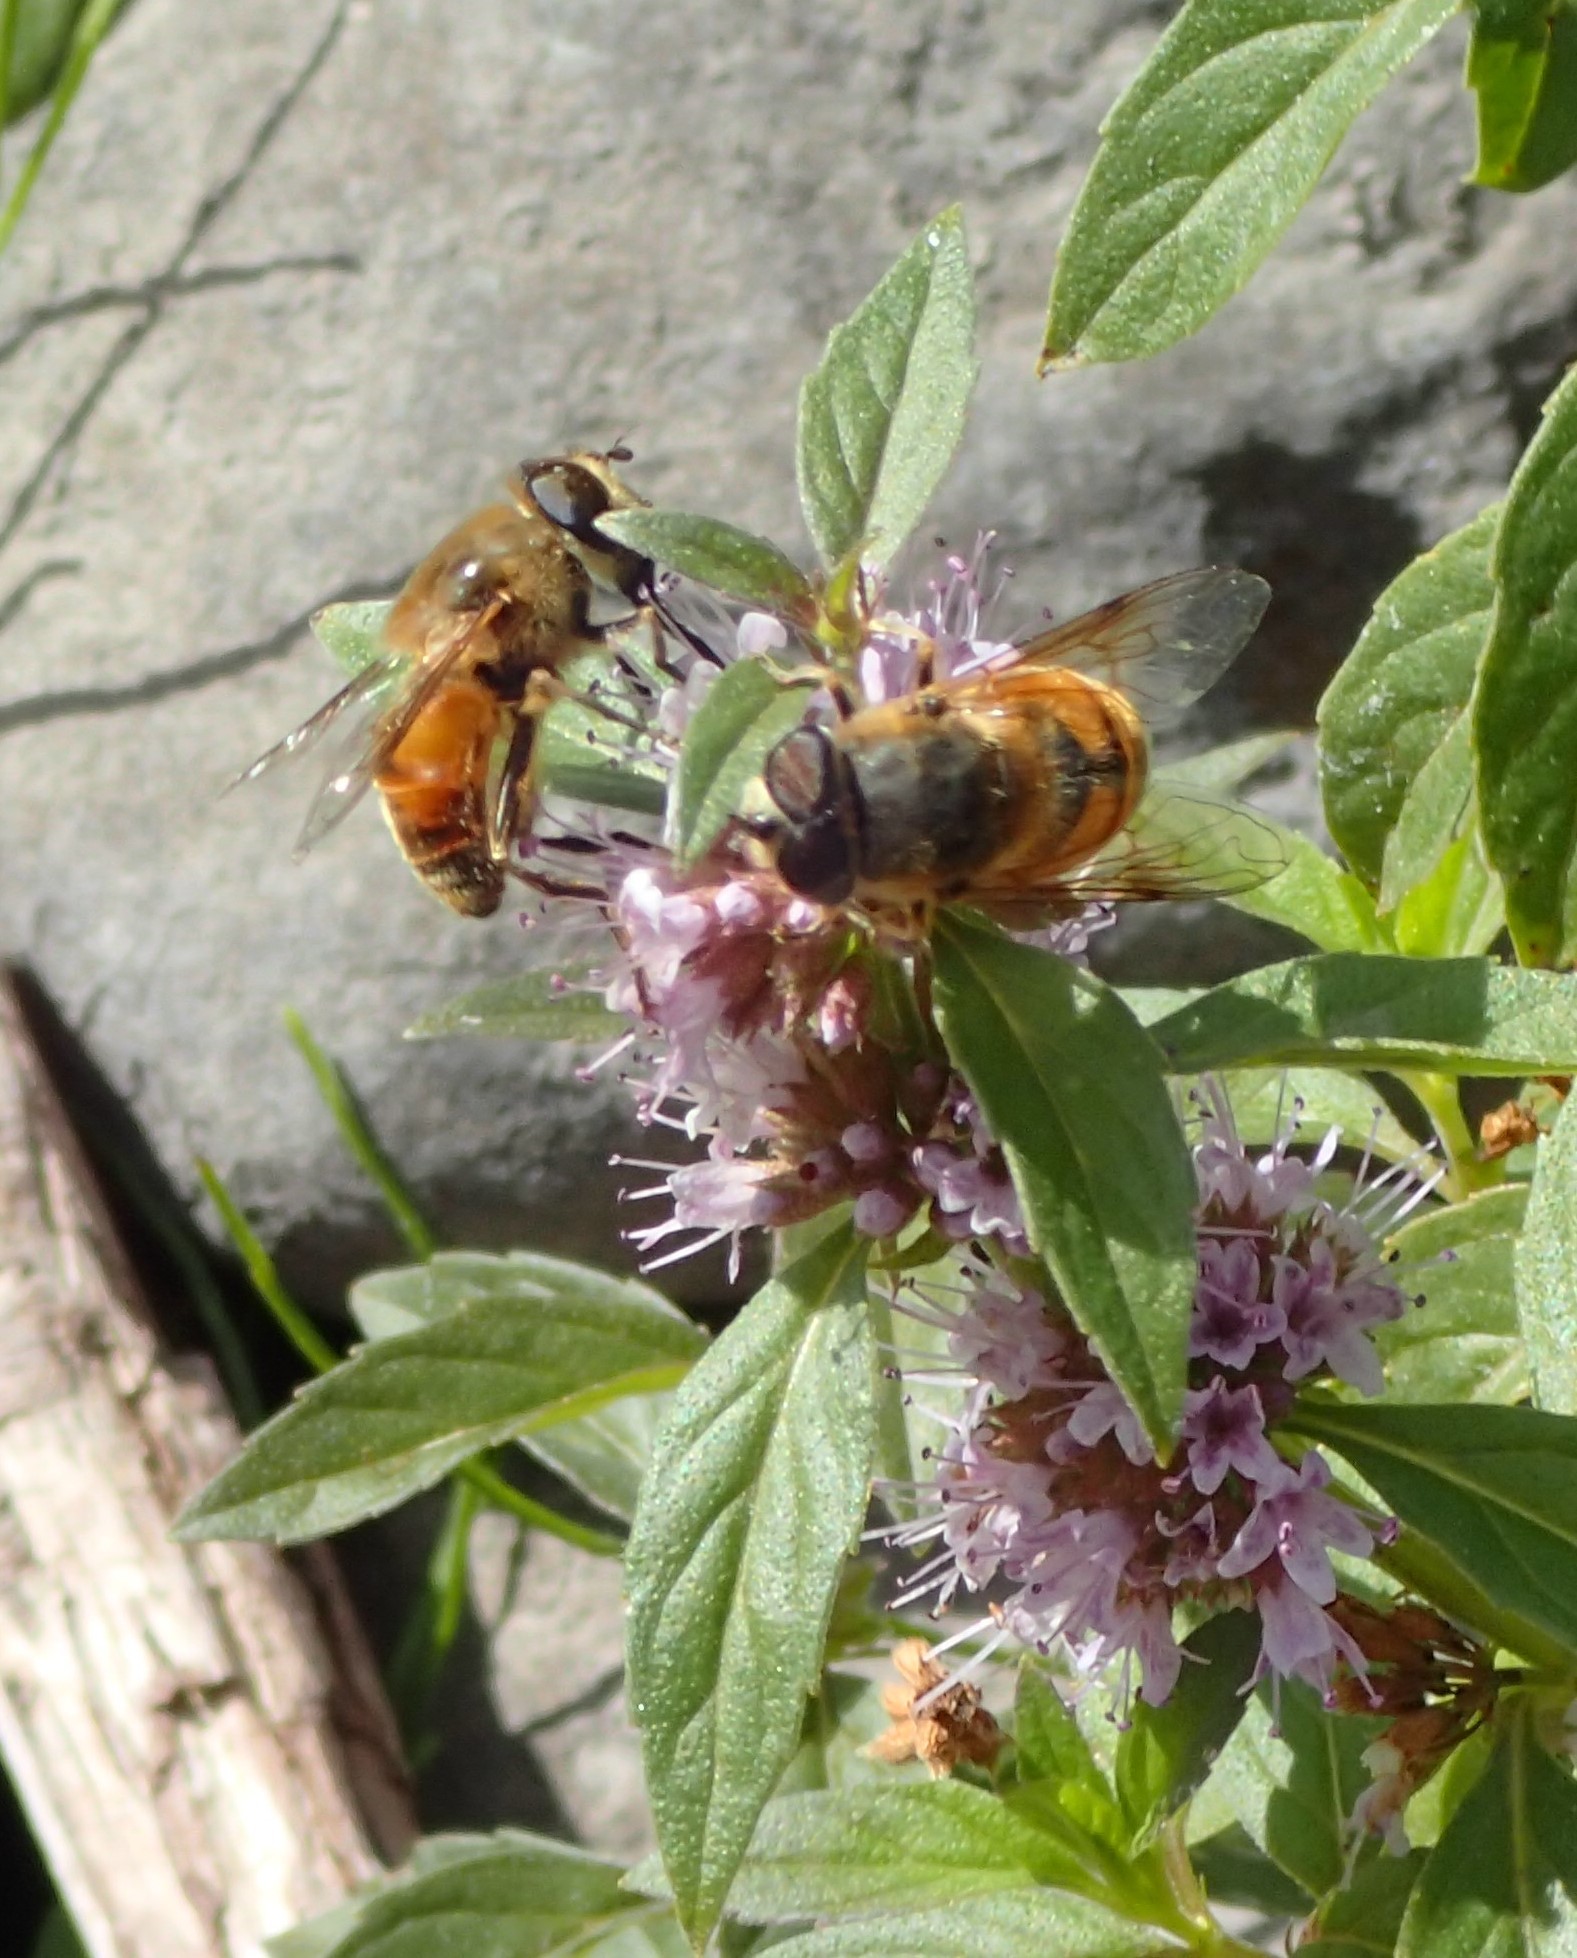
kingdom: Animalia
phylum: Arthropoda
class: Insecta
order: Diptera
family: Syrphidae
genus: Eristalis
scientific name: Eristalis tenax
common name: Drone fly
